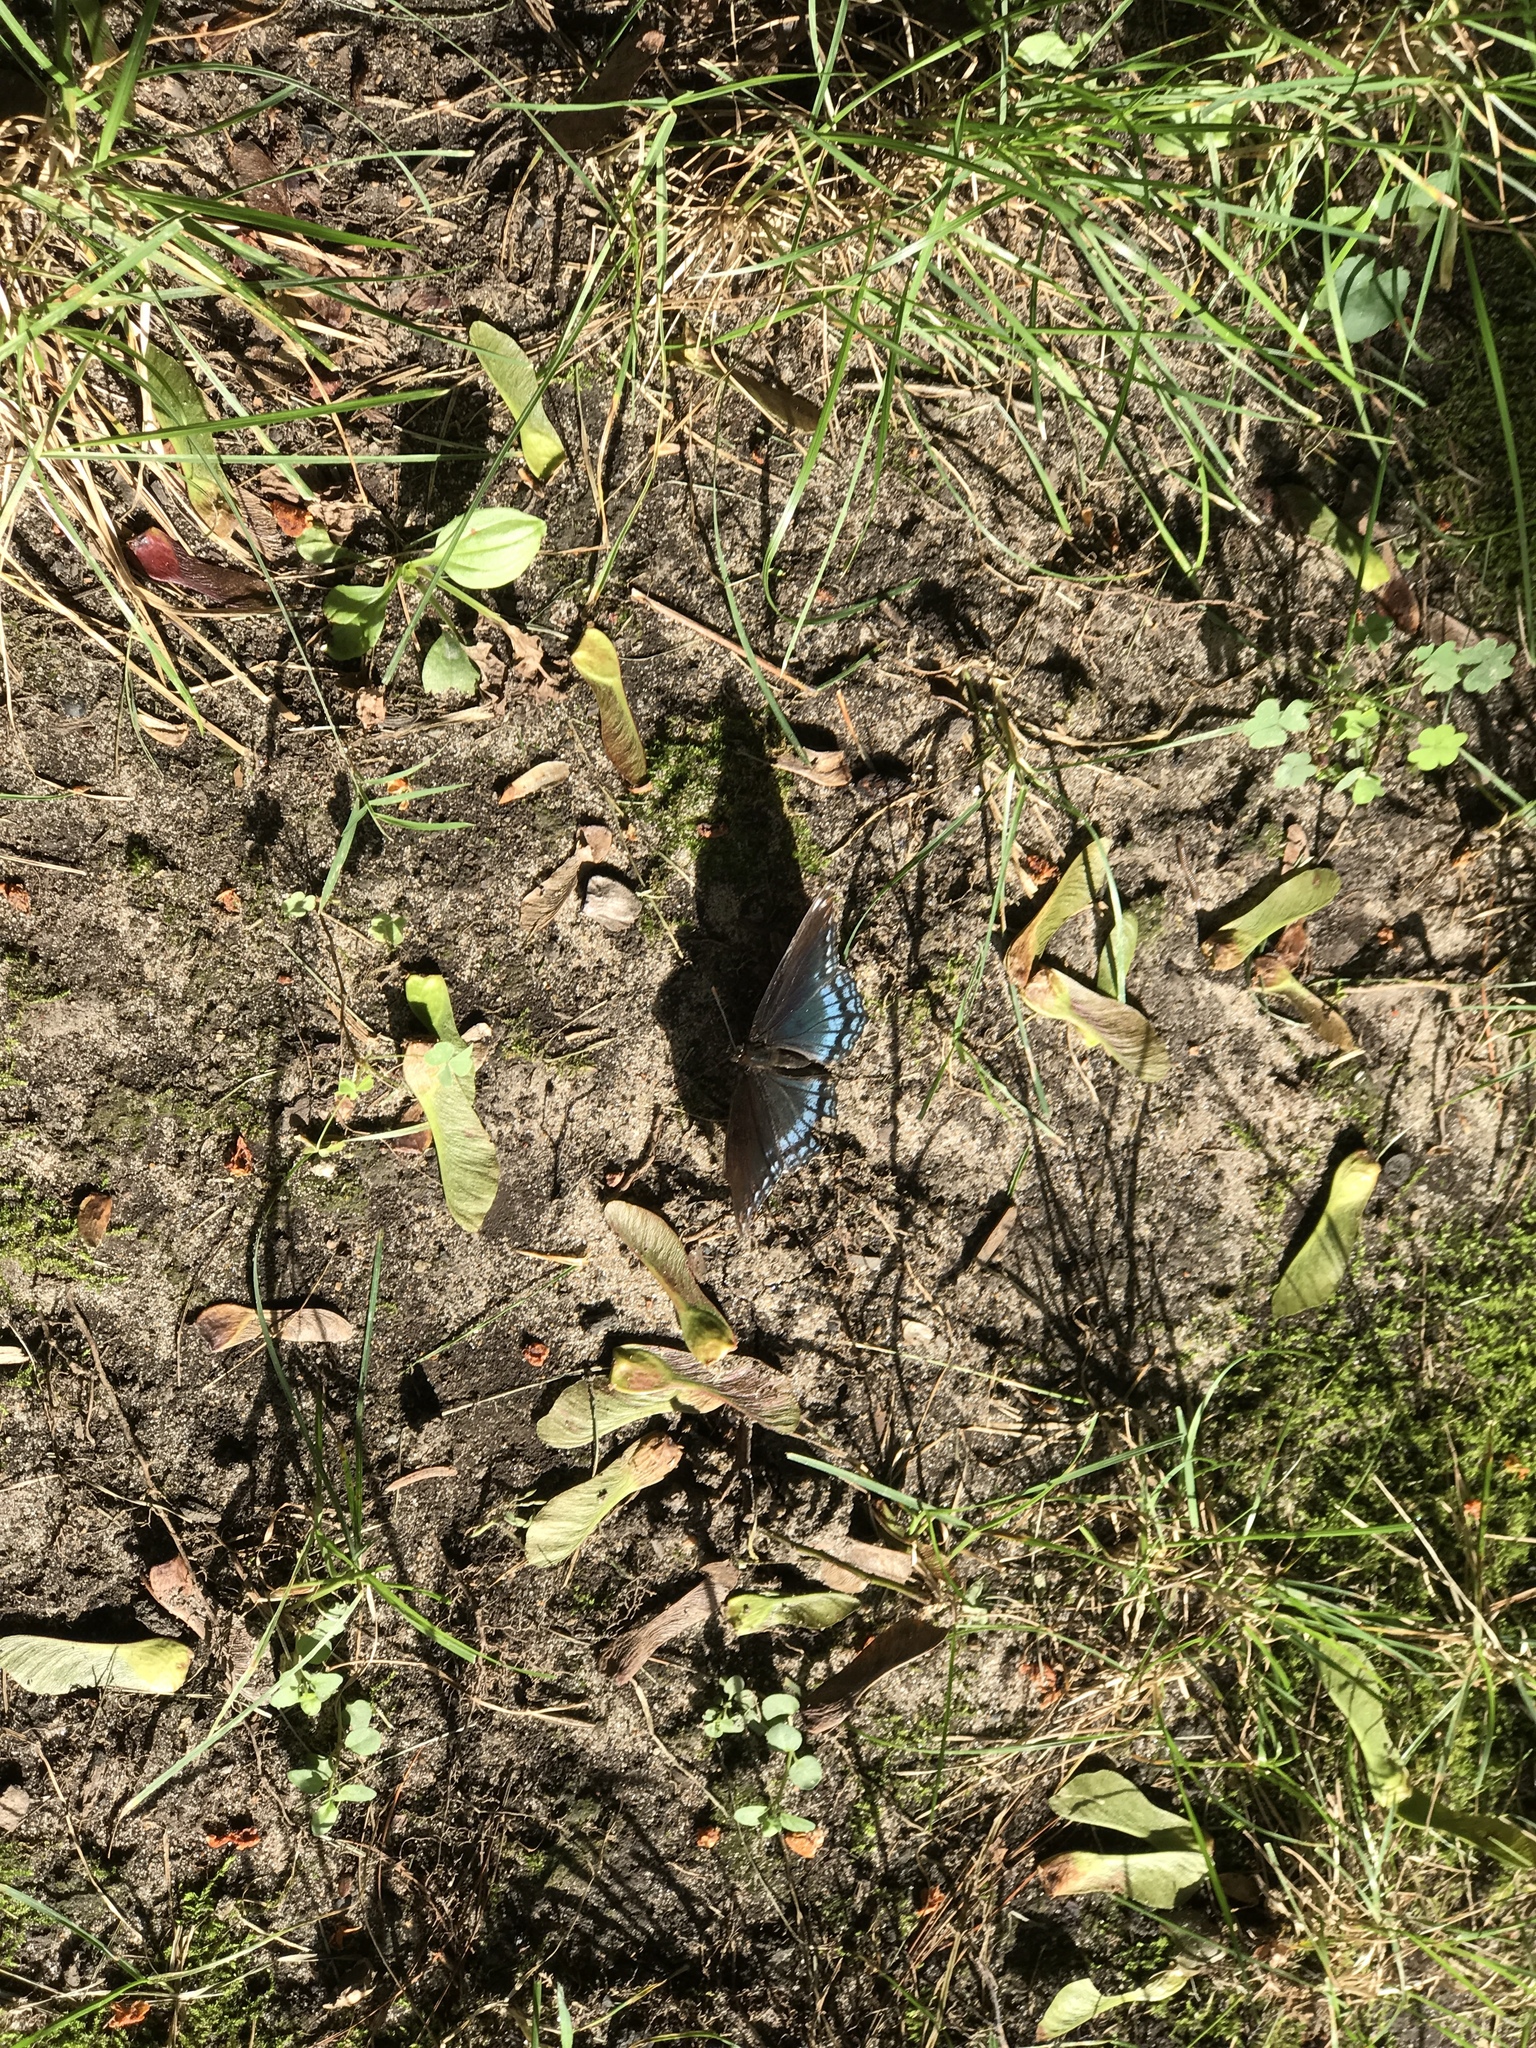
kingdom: Animalia
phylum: Arthropoda
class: Insecta
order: Lepidoptera
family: Nymphalidae
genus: Limenitis
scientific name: Limenitis astyanax
